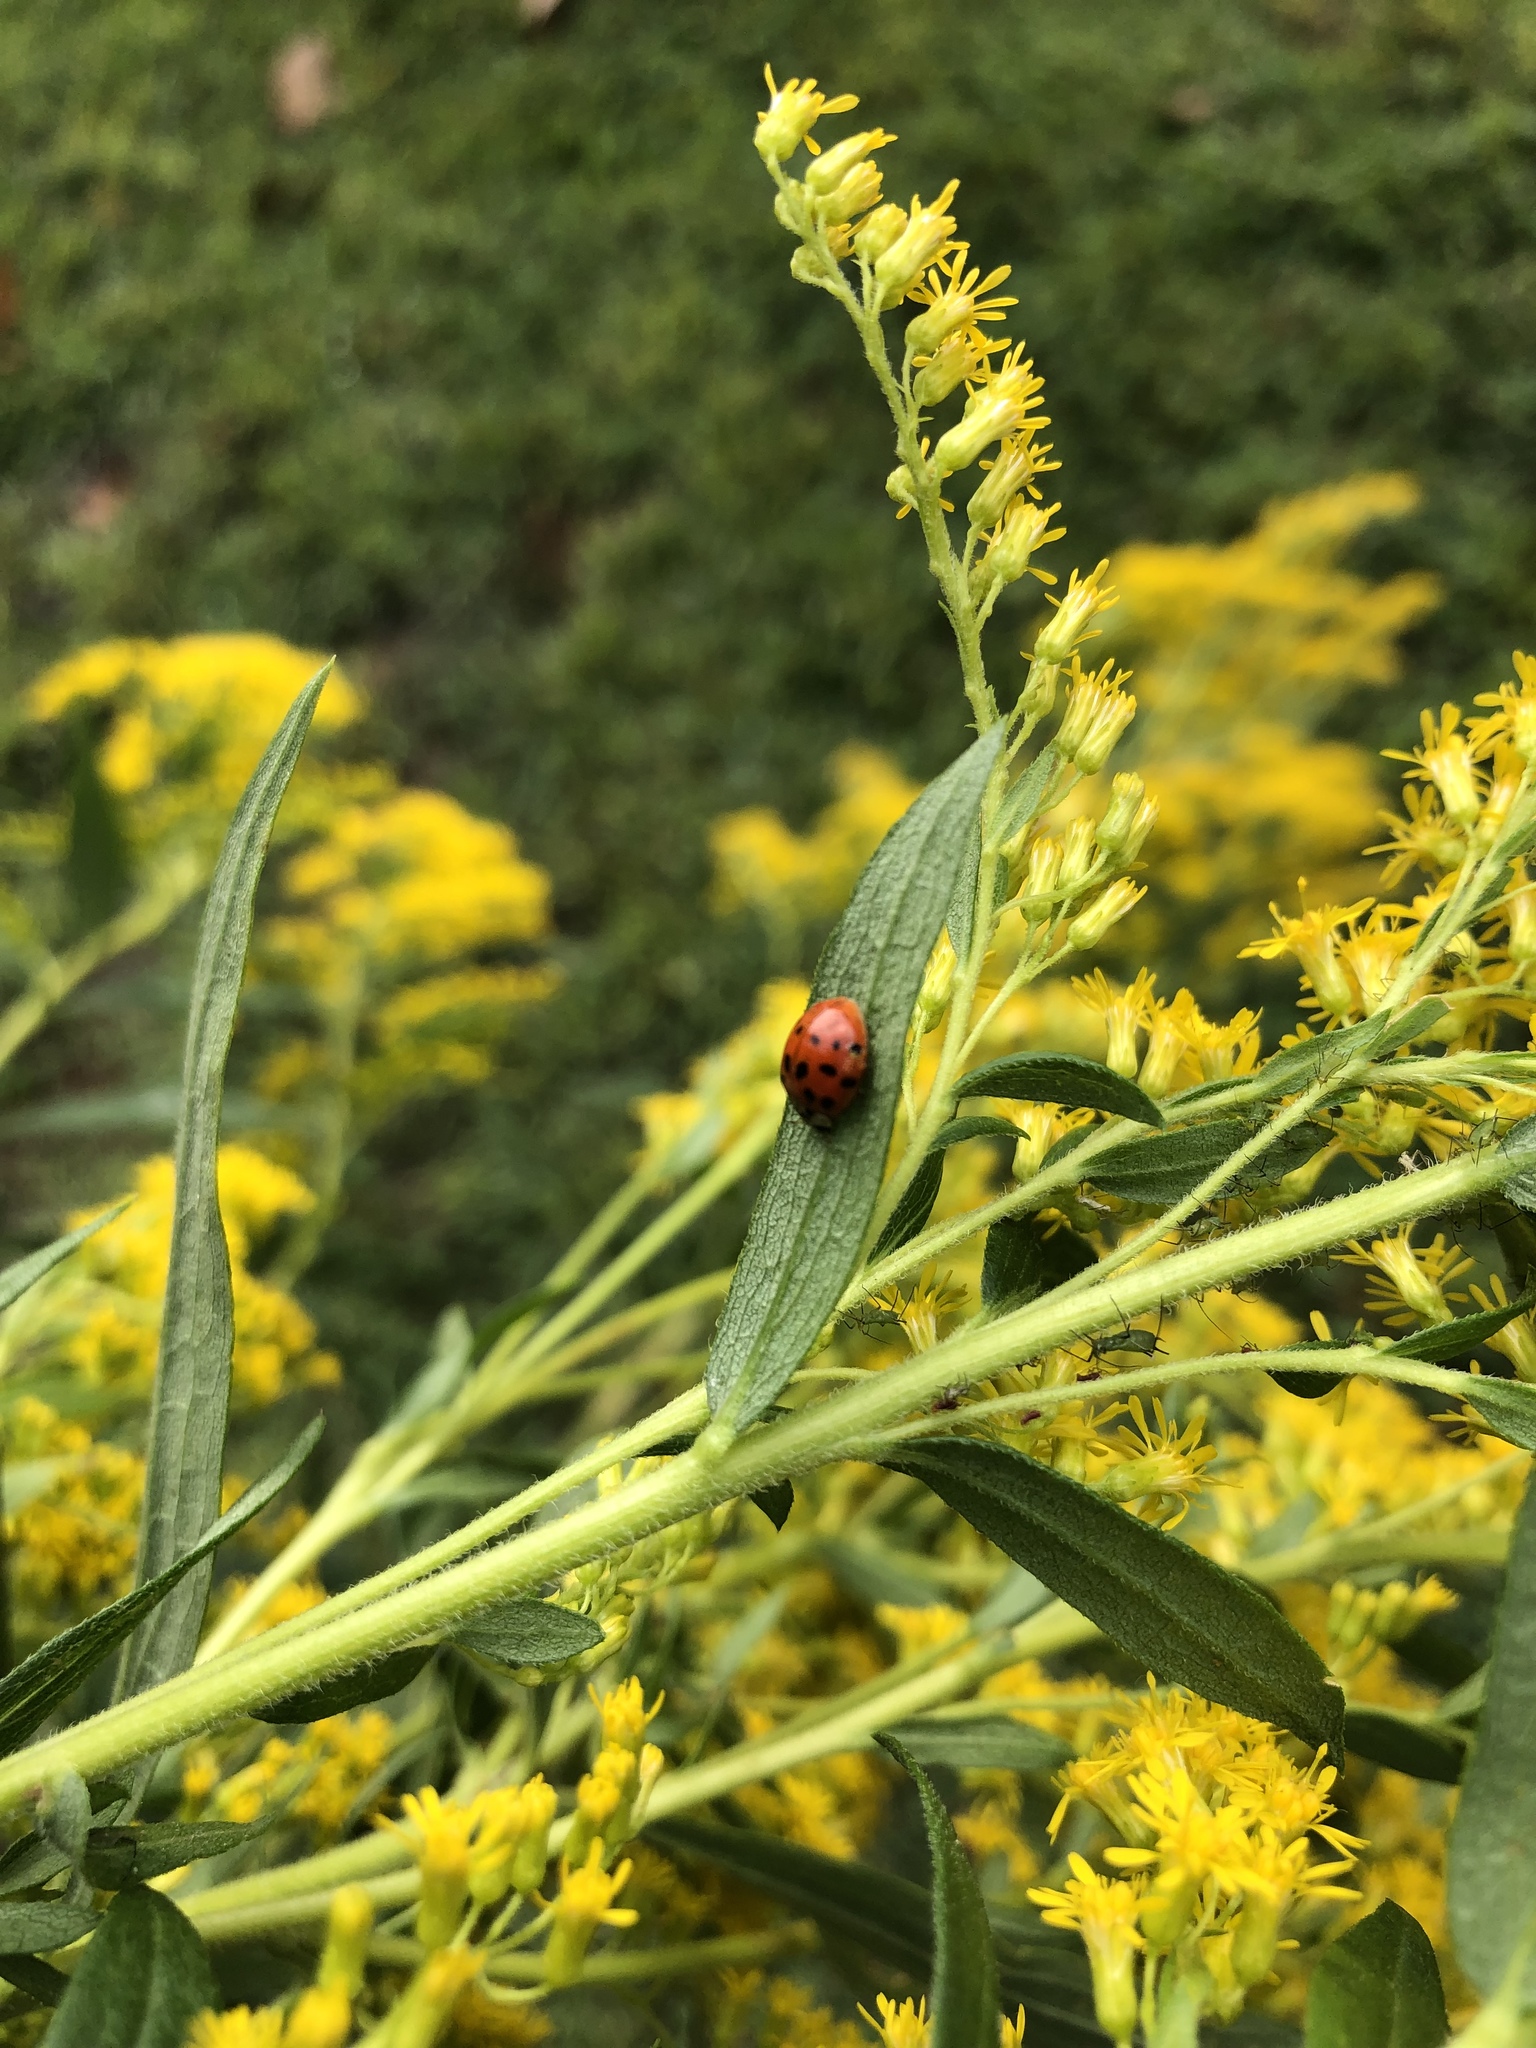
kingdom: Animalia
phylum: Arthropoda
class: Insecta
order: Coleoptera
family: Coccinellidae
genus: Harmonia
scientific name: Harmonia axyridis
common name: Harlequin ladybird
